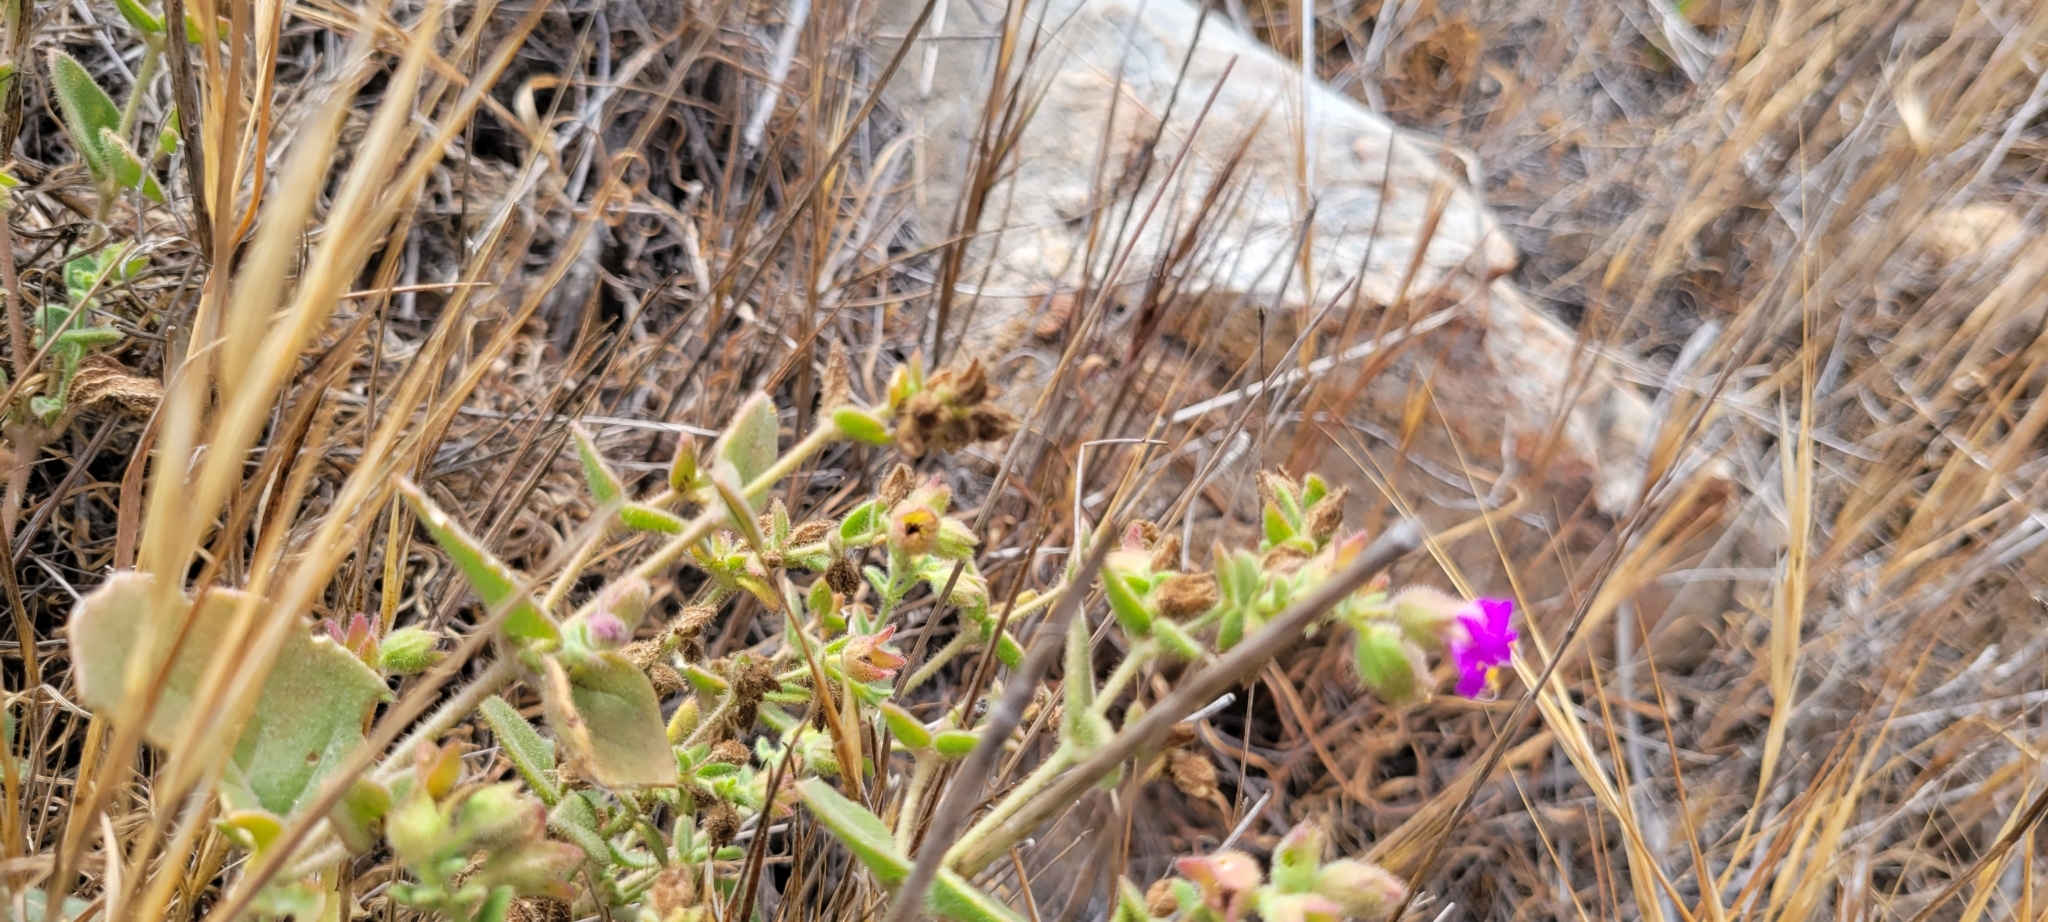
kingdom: Plantae
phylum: Tracheophyta
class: Magnoliopsida
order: Caryophyllales
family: Nyctaginaceae
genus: Mirabilis
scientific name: Mirabilis laevis
